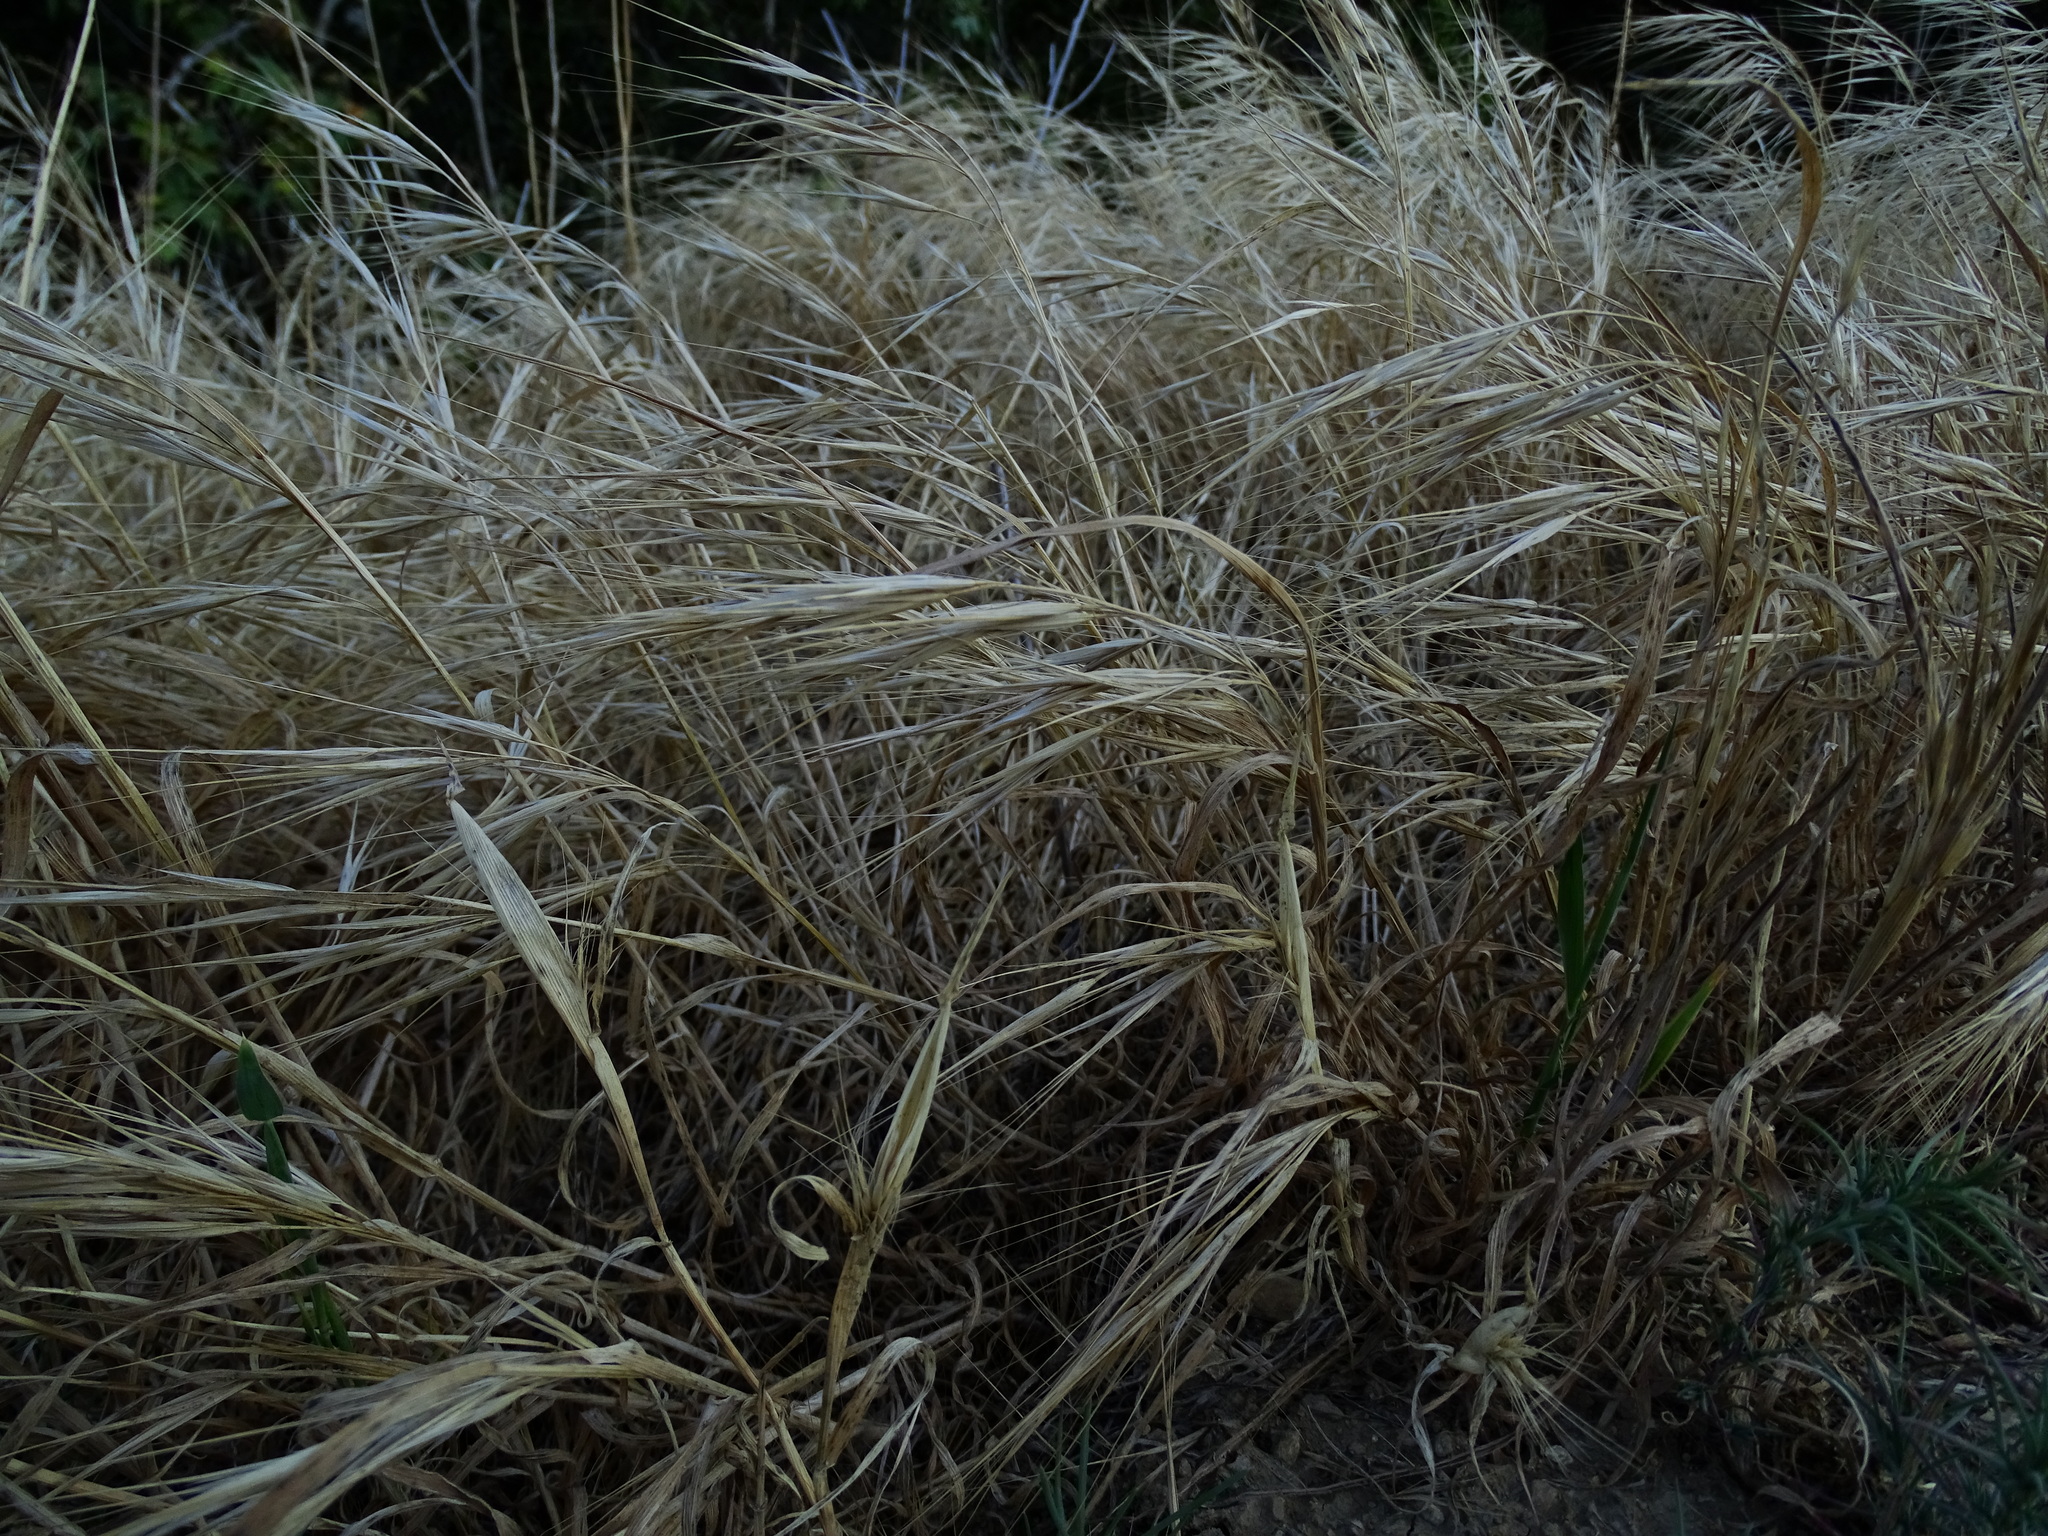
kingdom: Plantae
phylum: Tracheophyta
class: Liliopsida
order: Poales
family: Poaceae
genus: Bromus
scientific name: Bromus diandrus
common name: Ripgut brome
